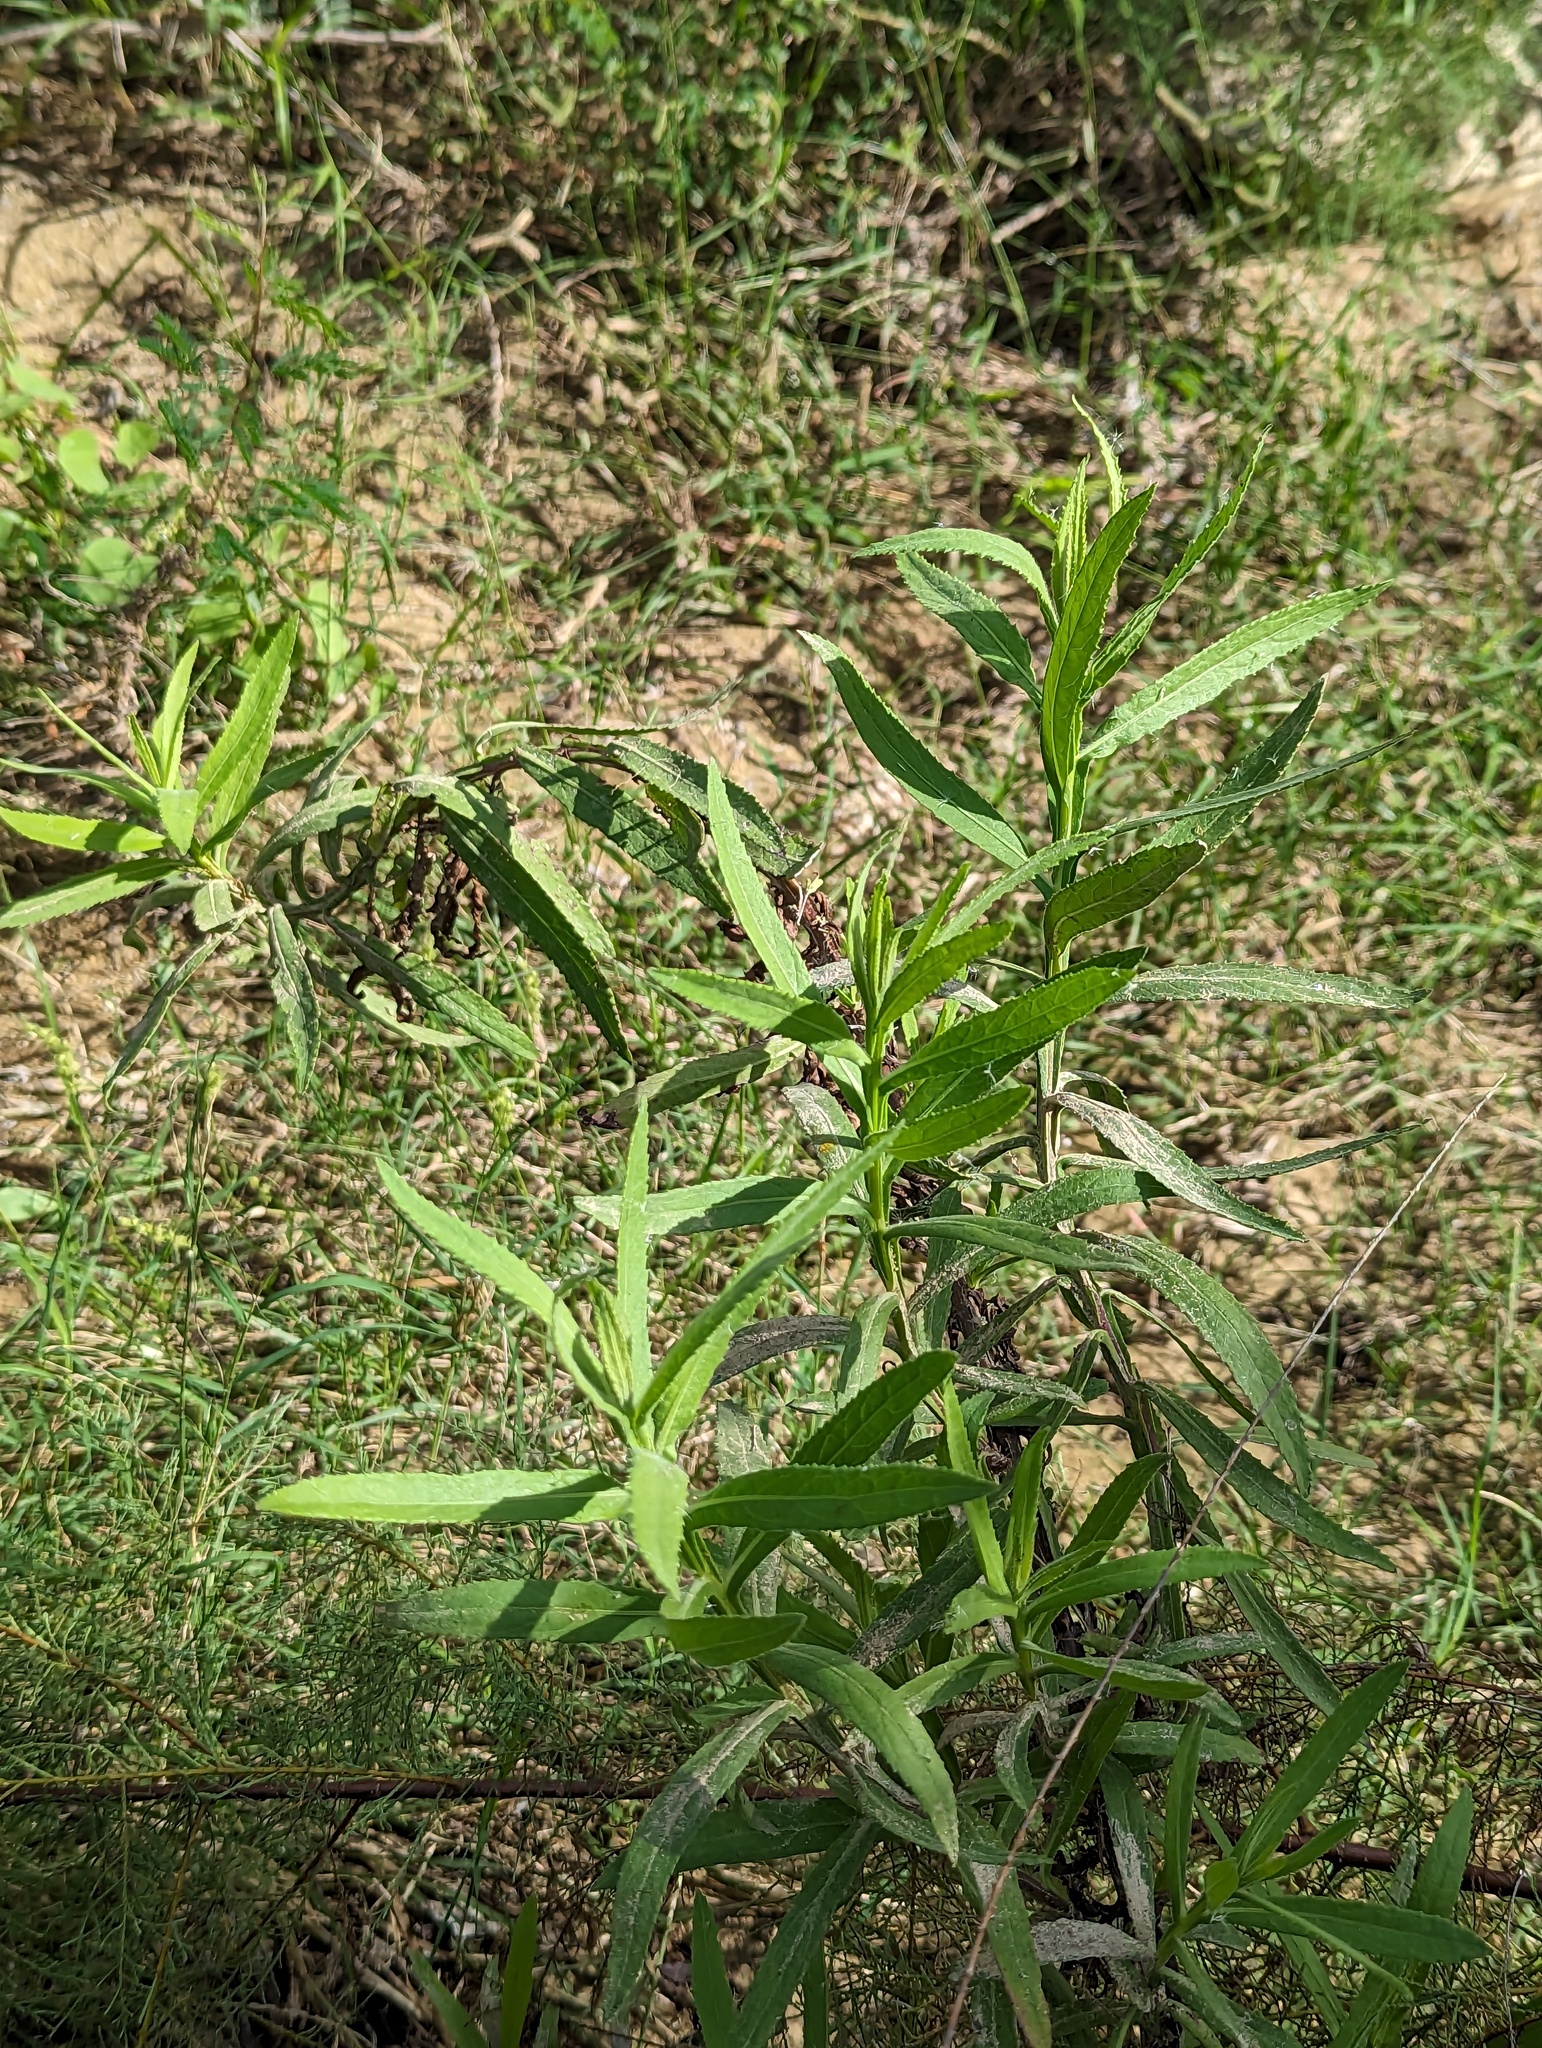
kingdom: Plantae
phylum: Tracheophyta
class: Magnoliopsida
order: Asterales
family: Asteraceae
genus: Pluchea
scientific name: Pluchea salicifolia
